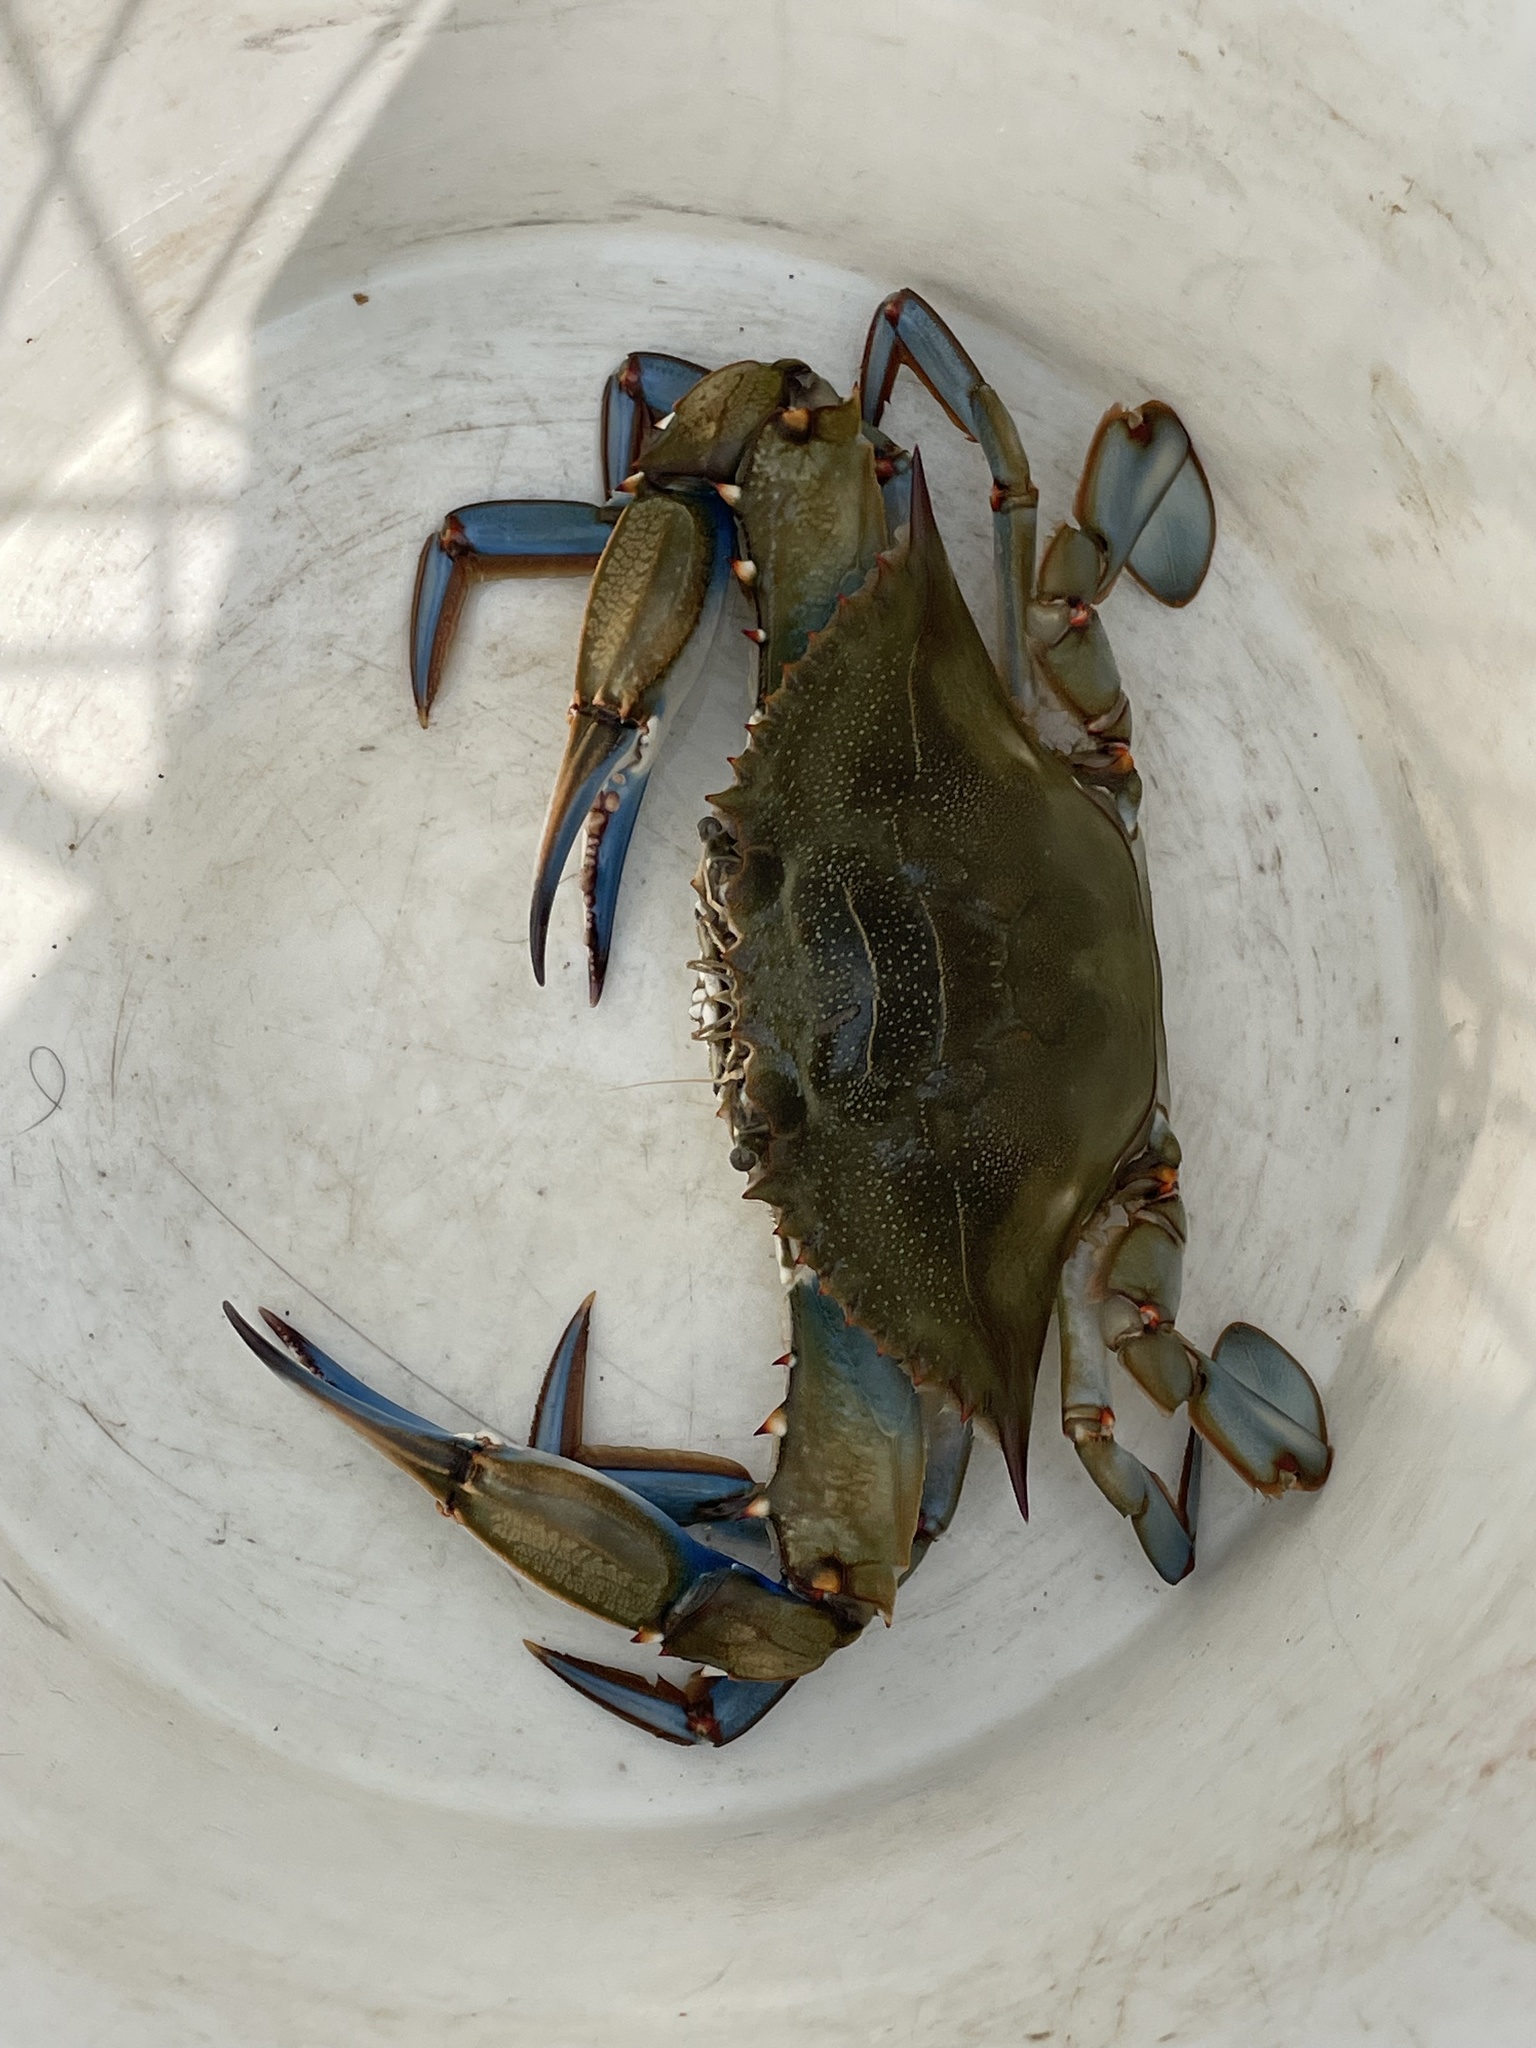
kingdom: Animalia
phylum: Arthropoda
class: Malacostraca
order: Decapoda
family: Portunidae
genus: Callinectes
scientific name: Callinectes sapidus
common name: Blue crab
